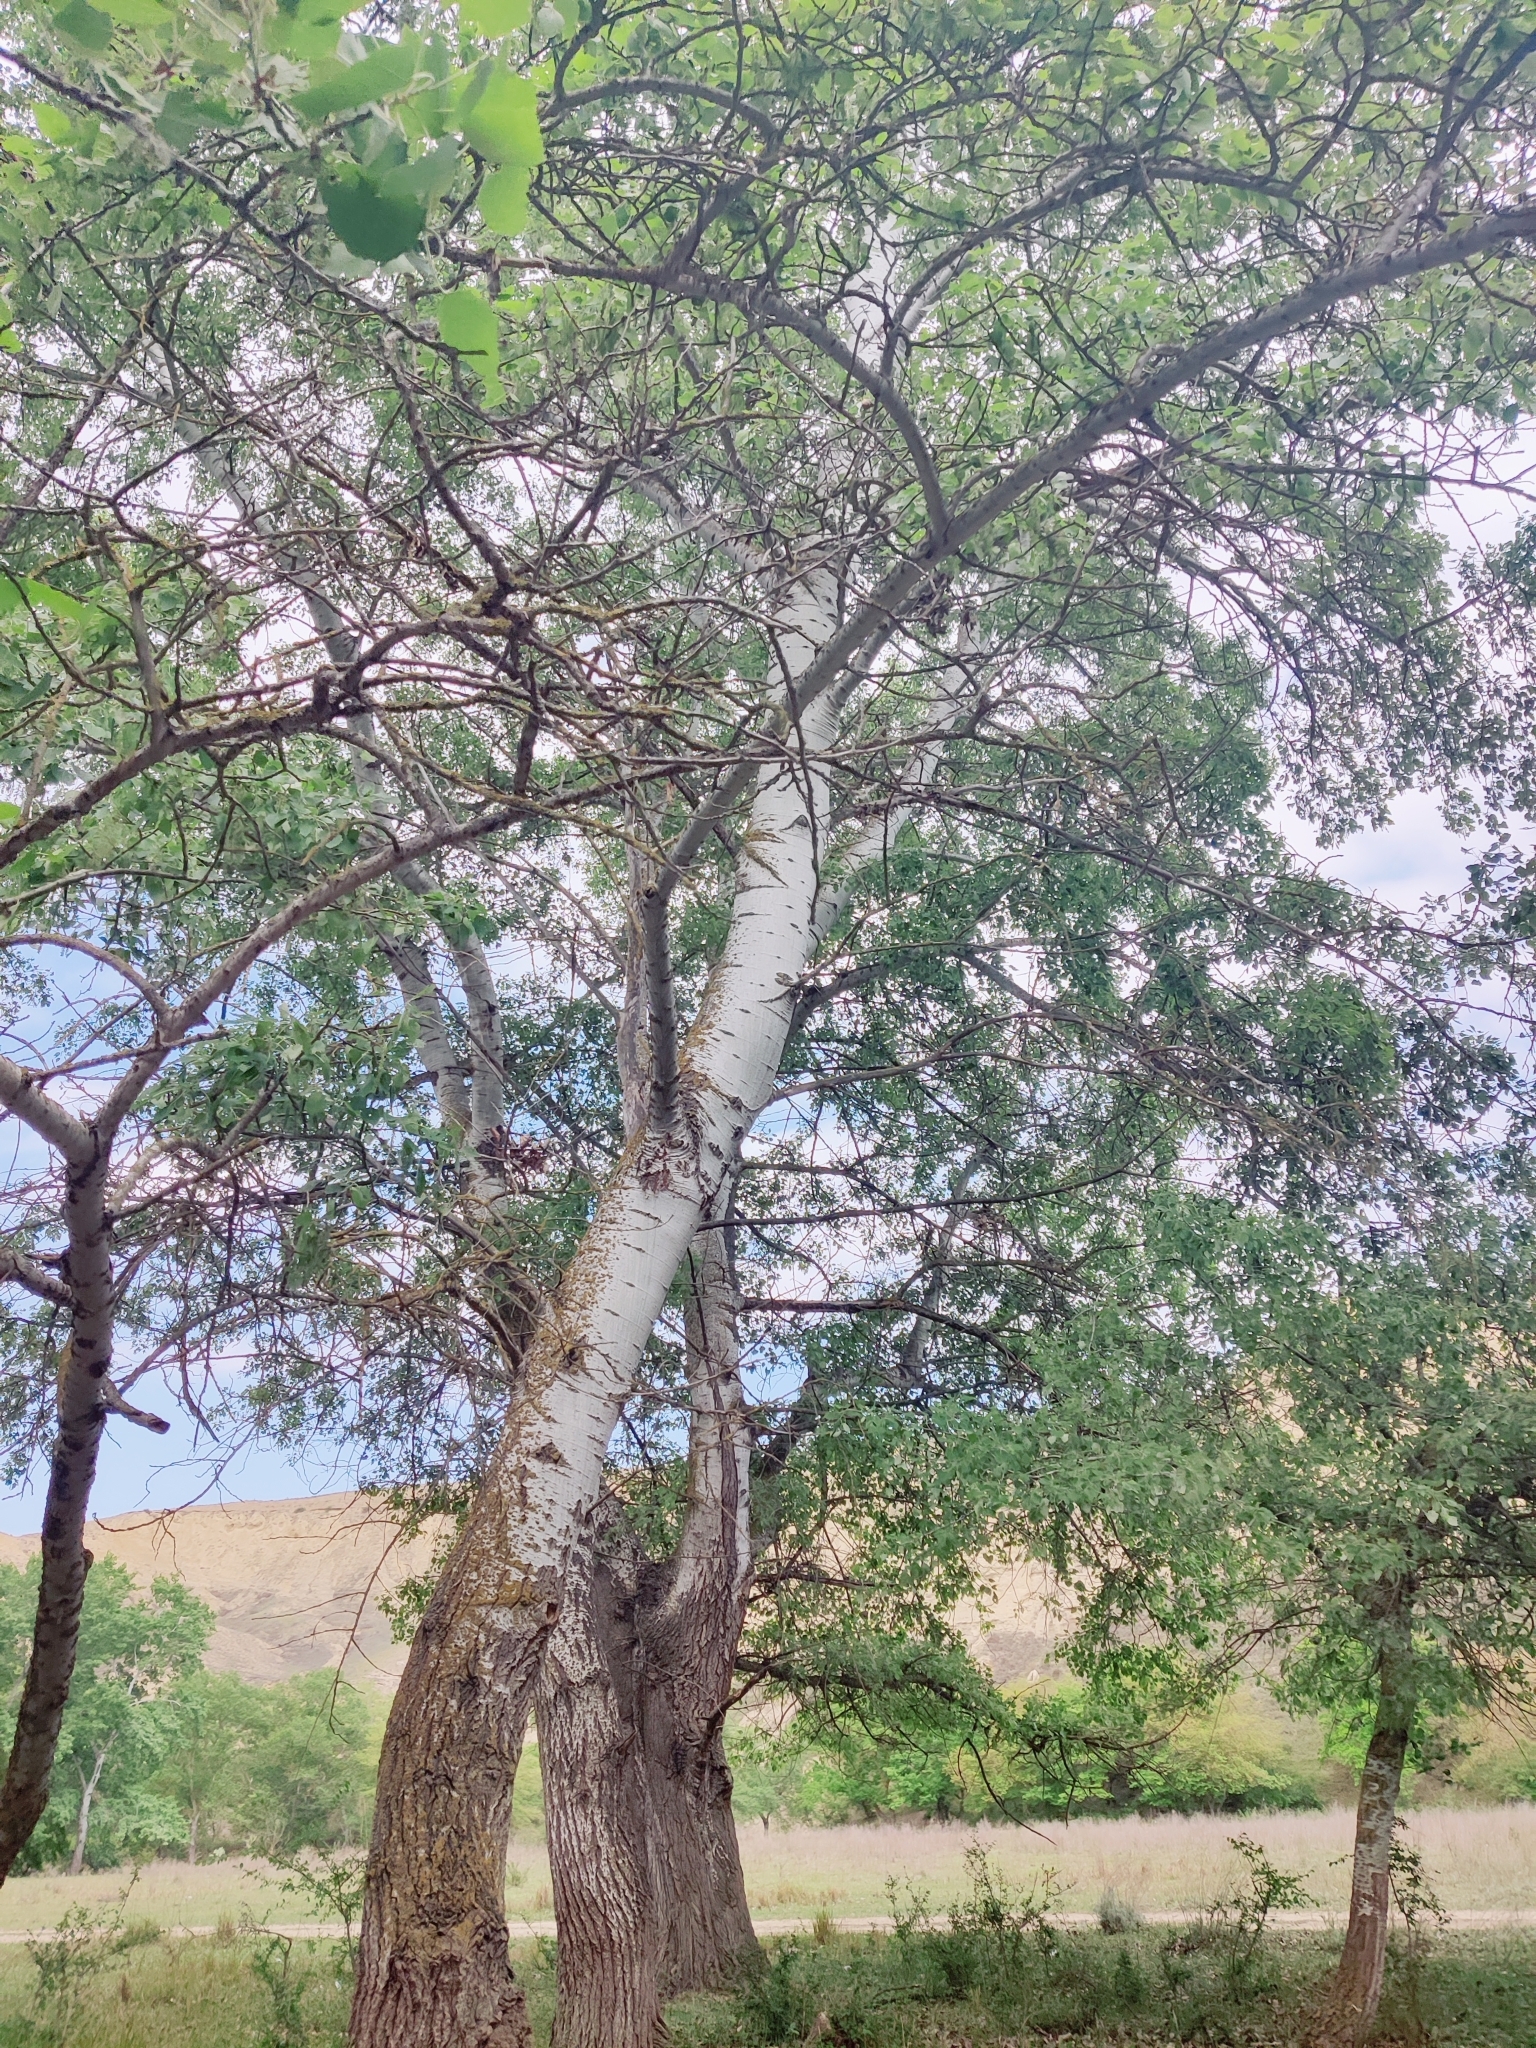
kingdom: Plantae
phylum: Tracheophyta
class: Magnoliopsida
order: Malpighiales
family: Salicaceae
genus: Populus
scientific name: Populus canescens
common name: Gray poplar
